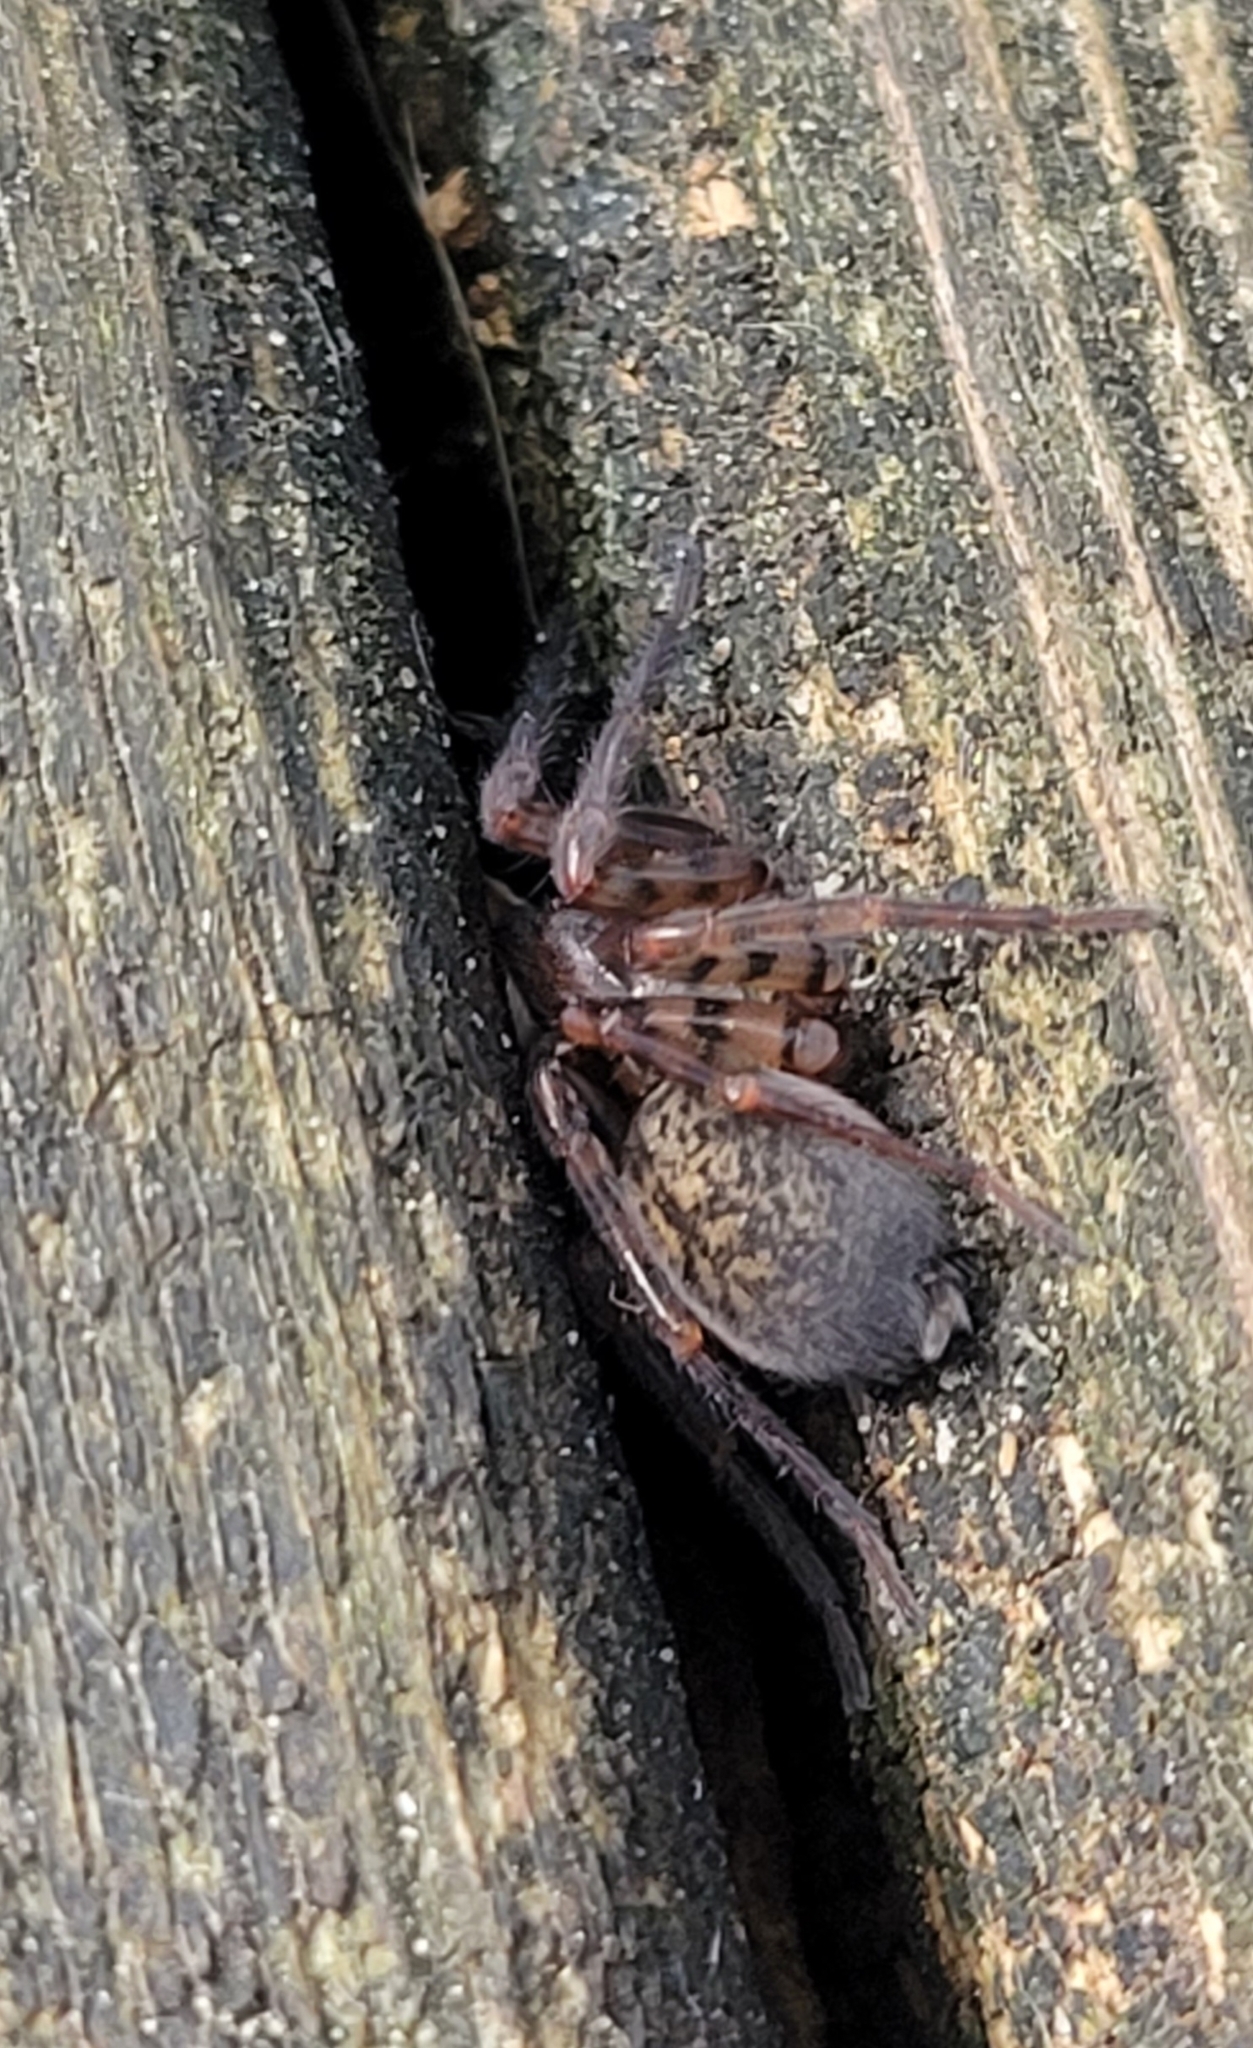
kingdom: Animalia
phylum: Arthropoda
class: Arachnida
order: Araneae
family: Agelenidae
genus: Coras
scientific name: Coras
